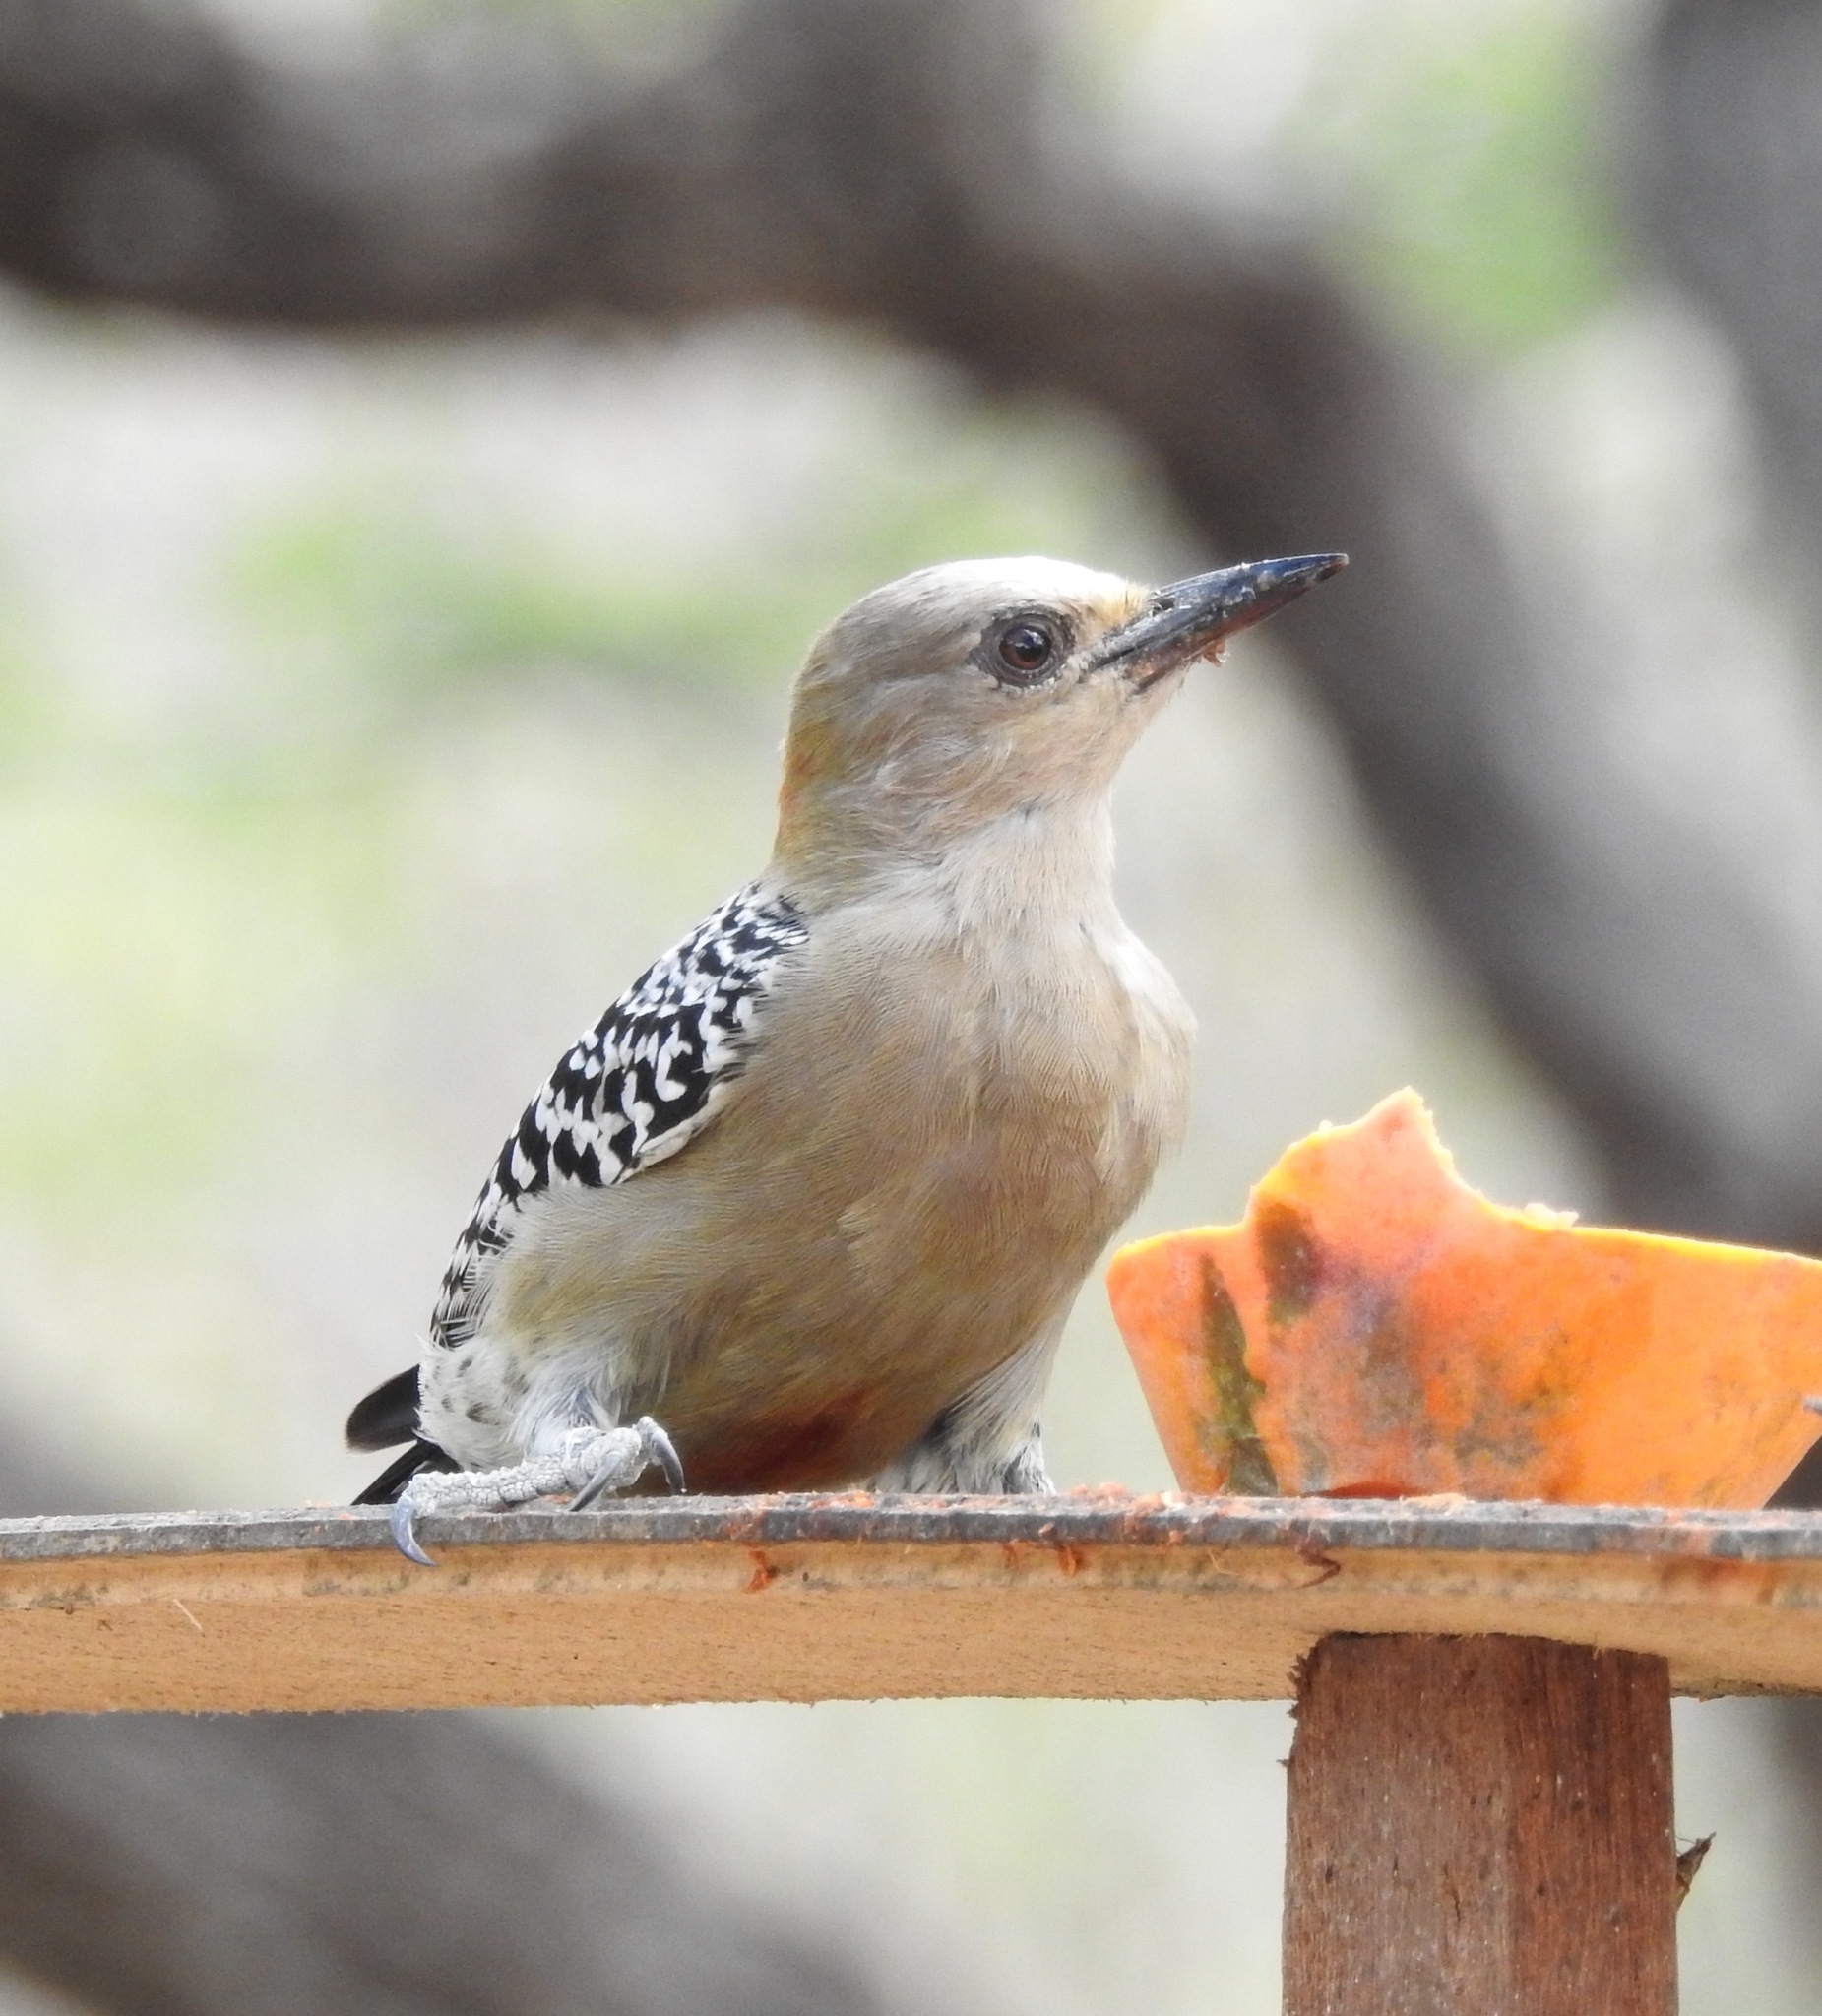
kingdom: Animalia
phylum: Chordata
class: Aves
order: Piciformes
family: Picidae
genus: Melanerpes
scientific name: Melanerpes rubricapillus
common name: Red-crowned woodpecker
